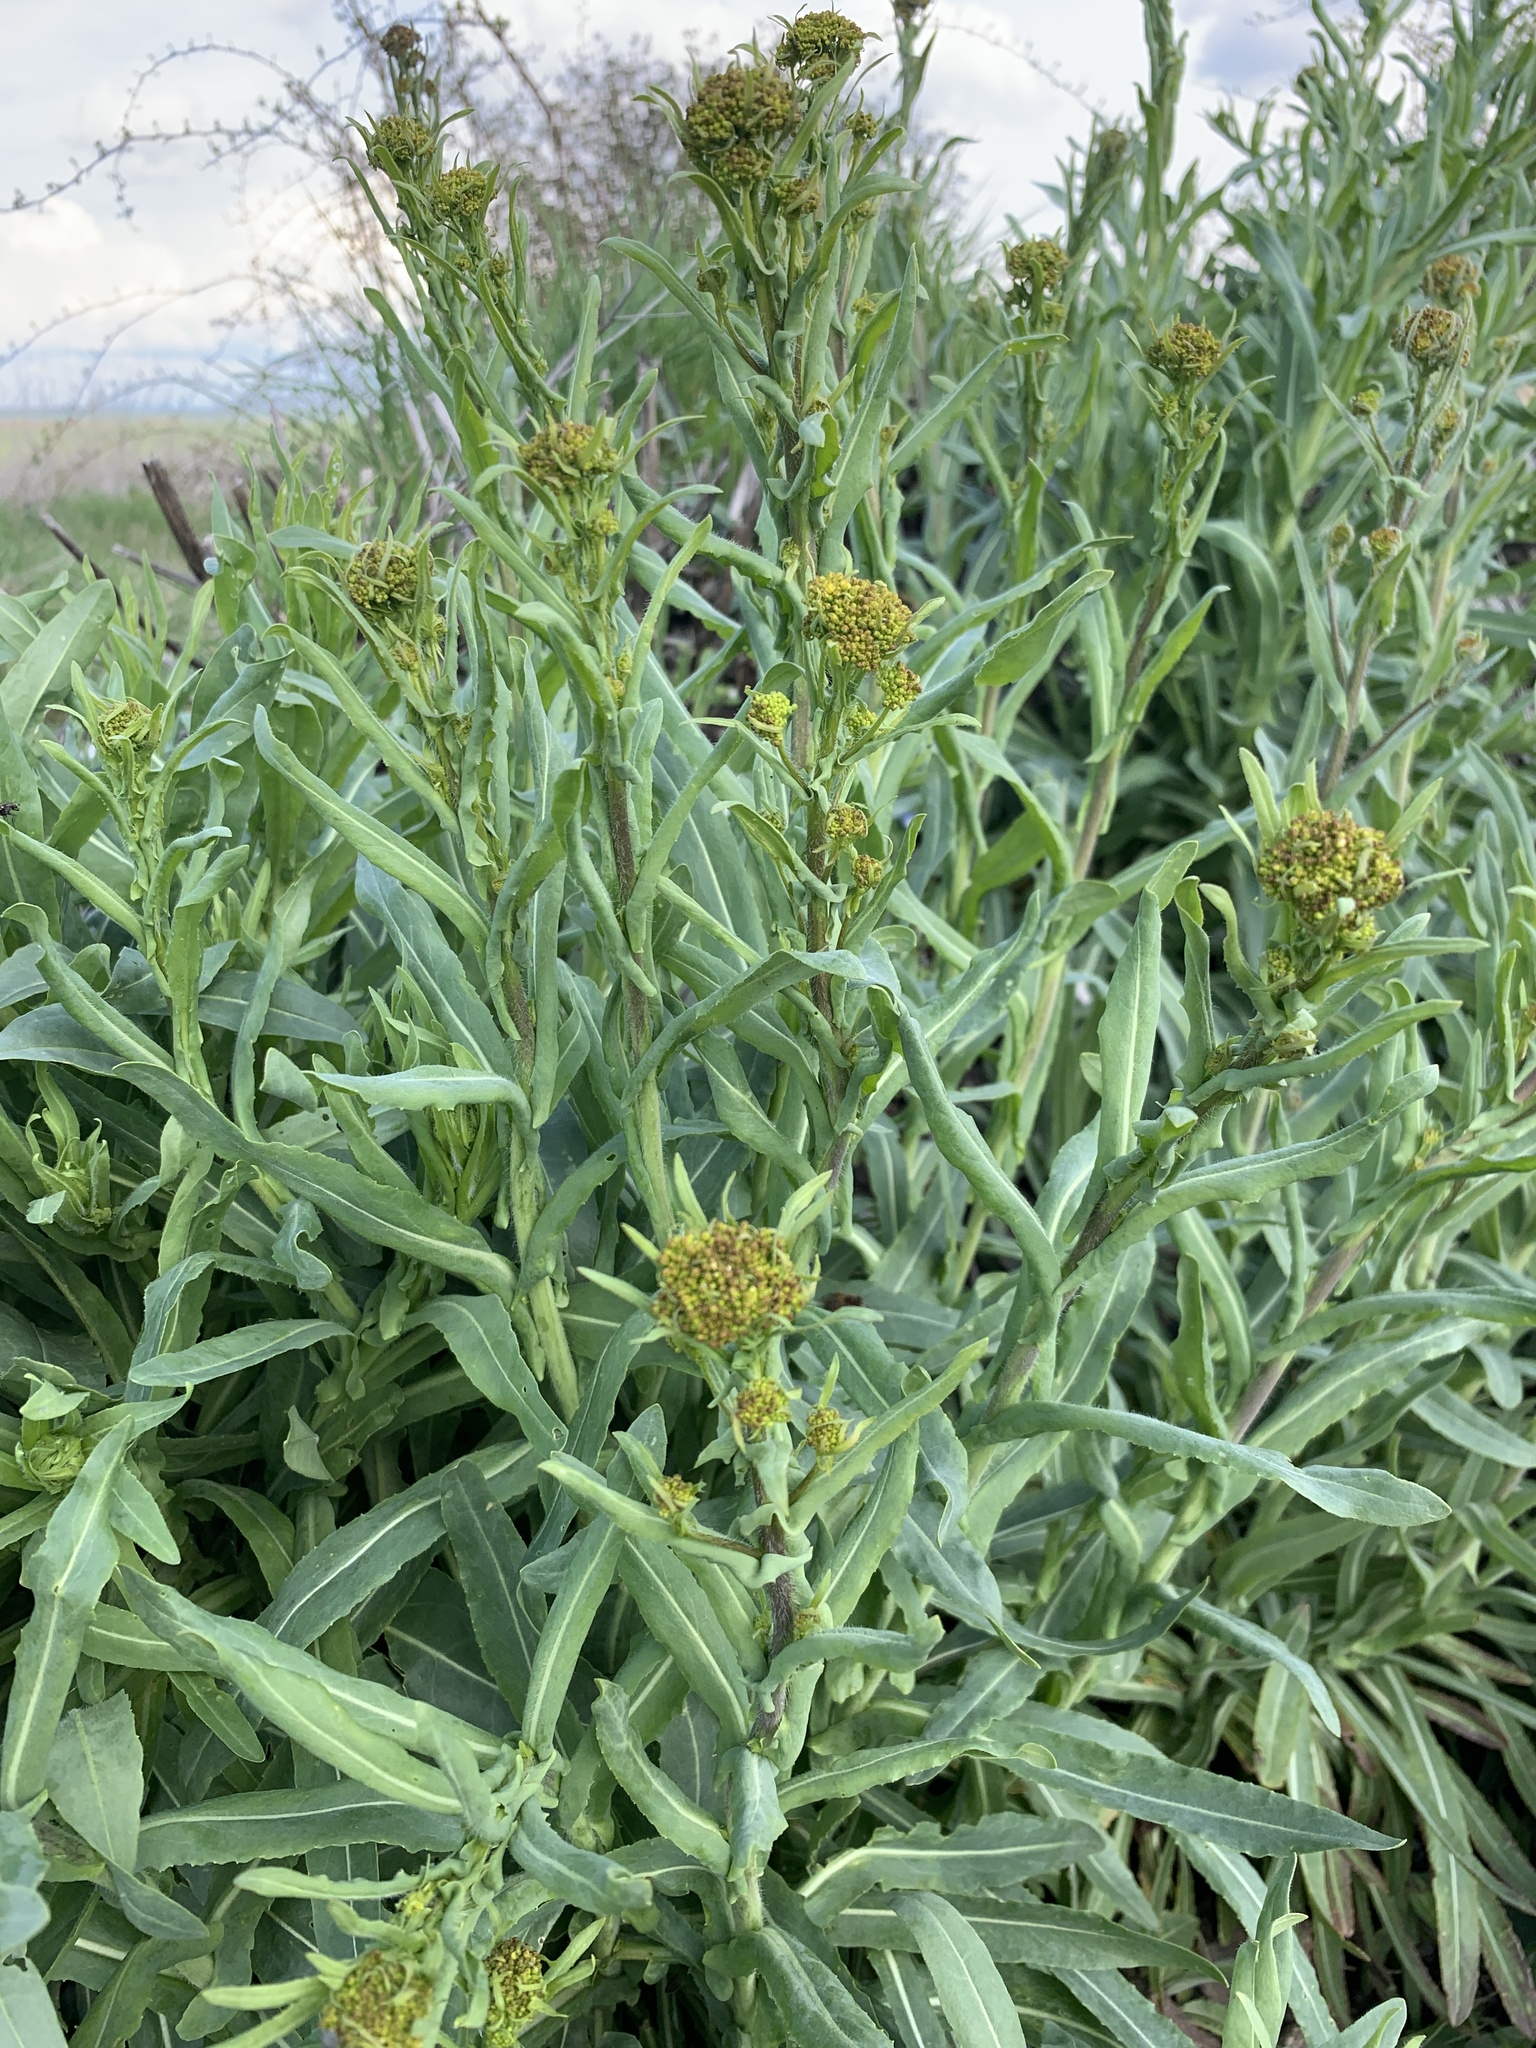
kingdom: Plantae
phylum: Tracheophyta
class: Magnoliopsida
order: Brassicales
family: Brassicaceae
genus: Isatis
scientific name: Isatis tinctoria
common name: Woad
